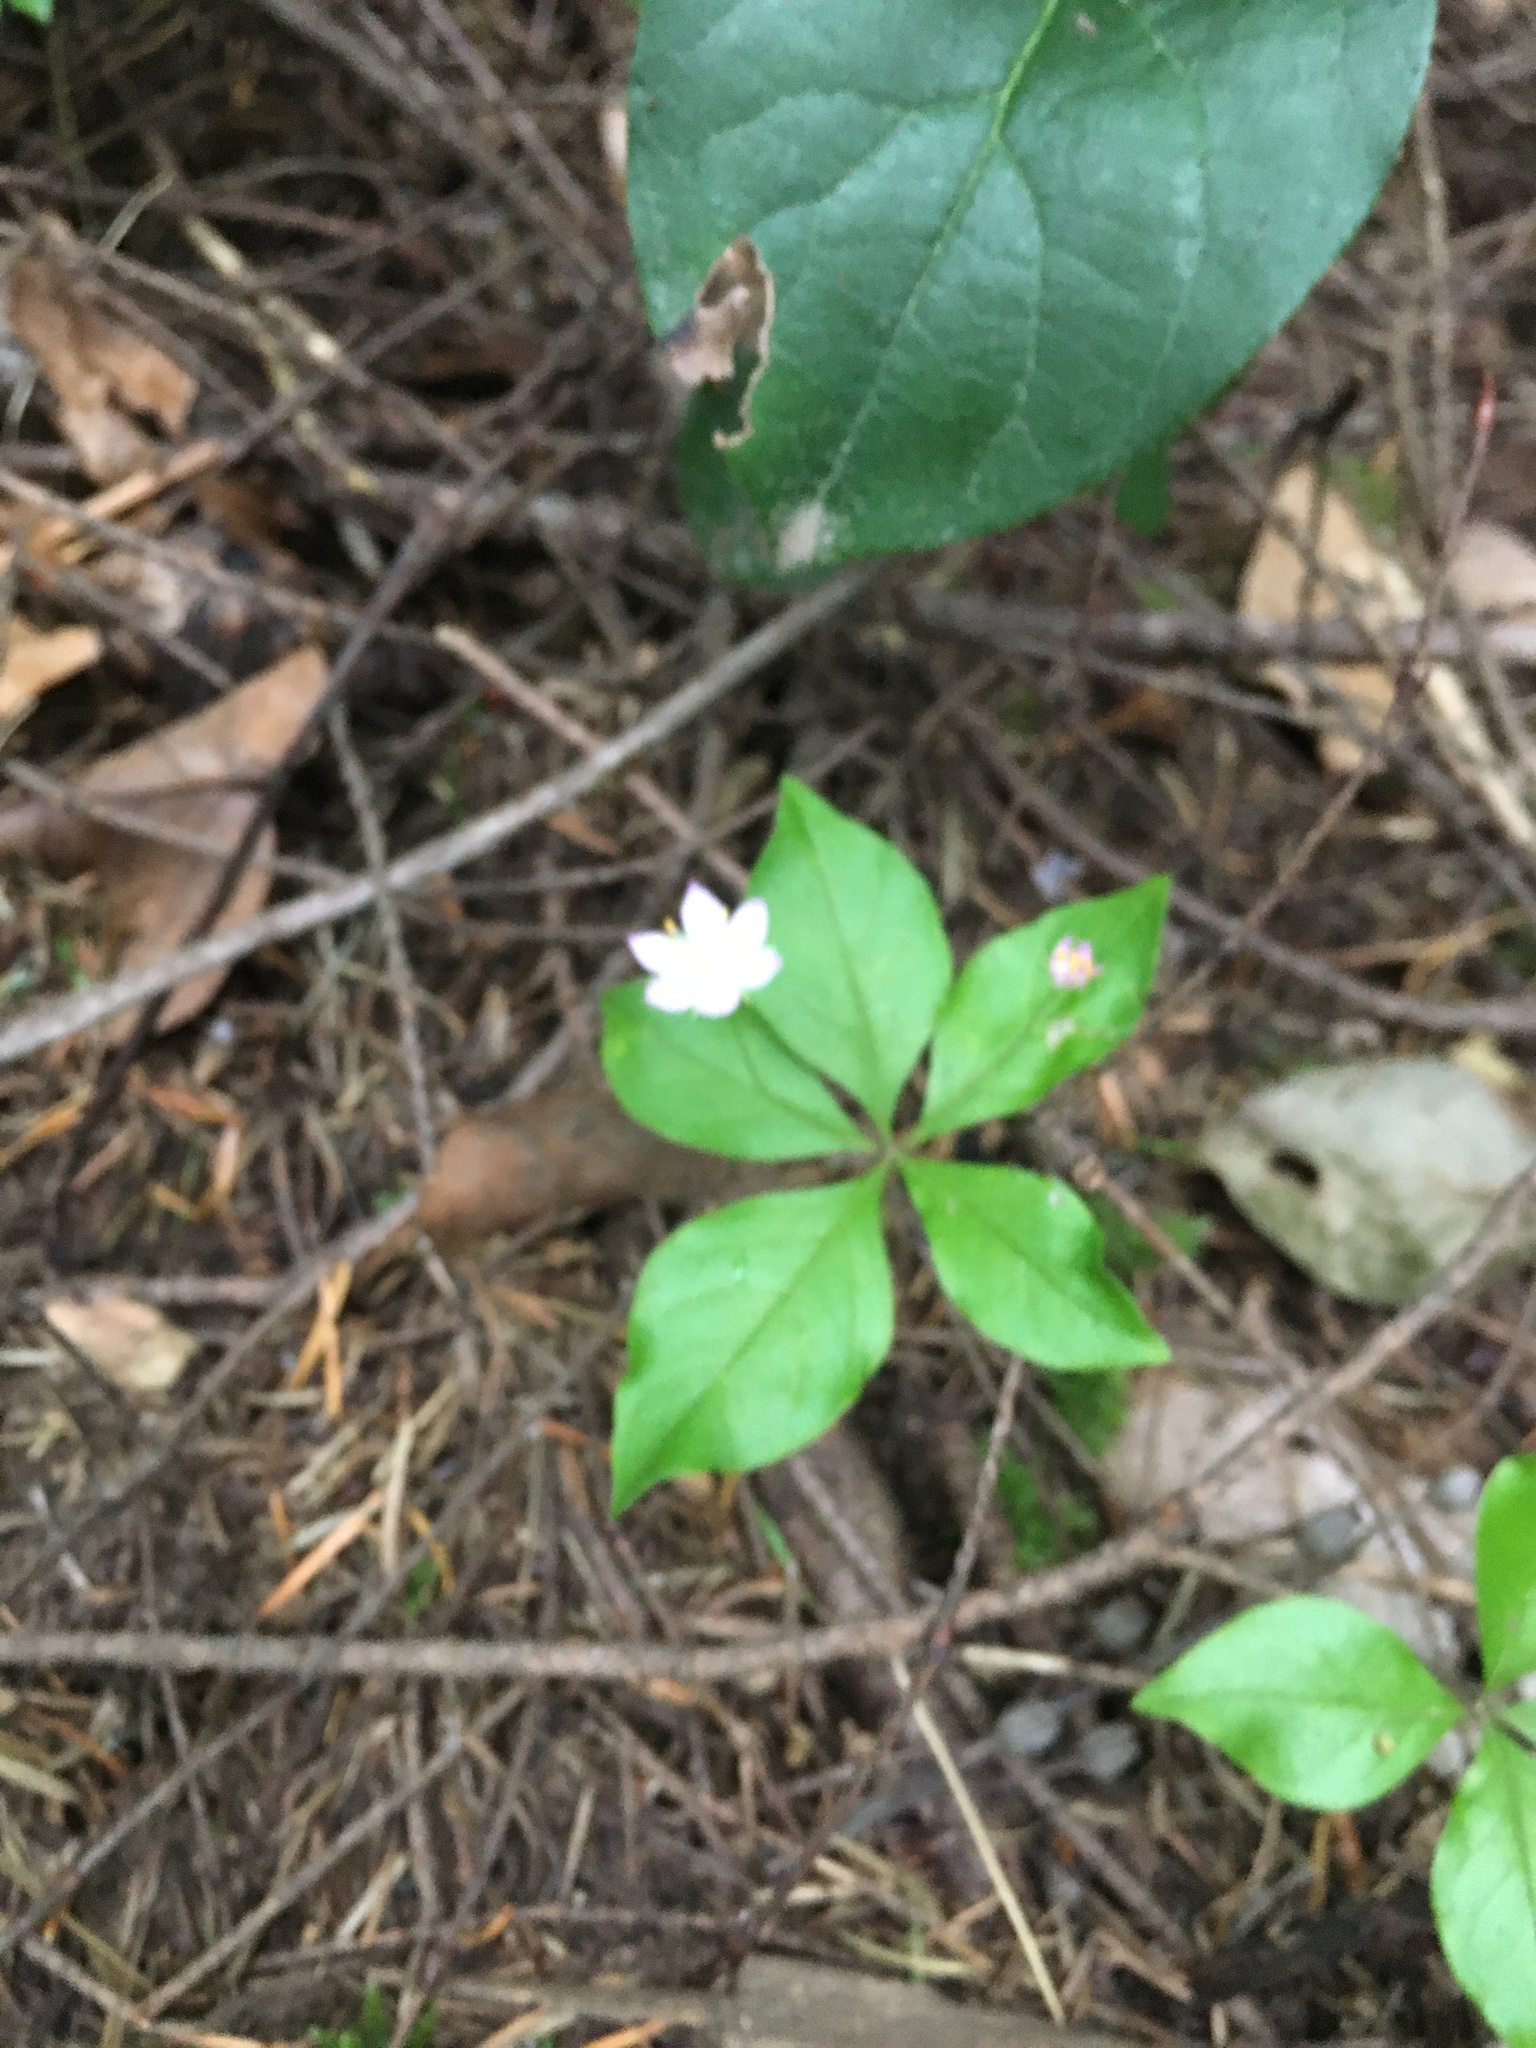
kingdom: Plantae
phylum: Tracheophyta
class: Magnoliopsida
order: Ericales
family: Primulaceae
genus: Lysimachia
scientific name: Lysimachia latifolia
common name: Pacific starflower
